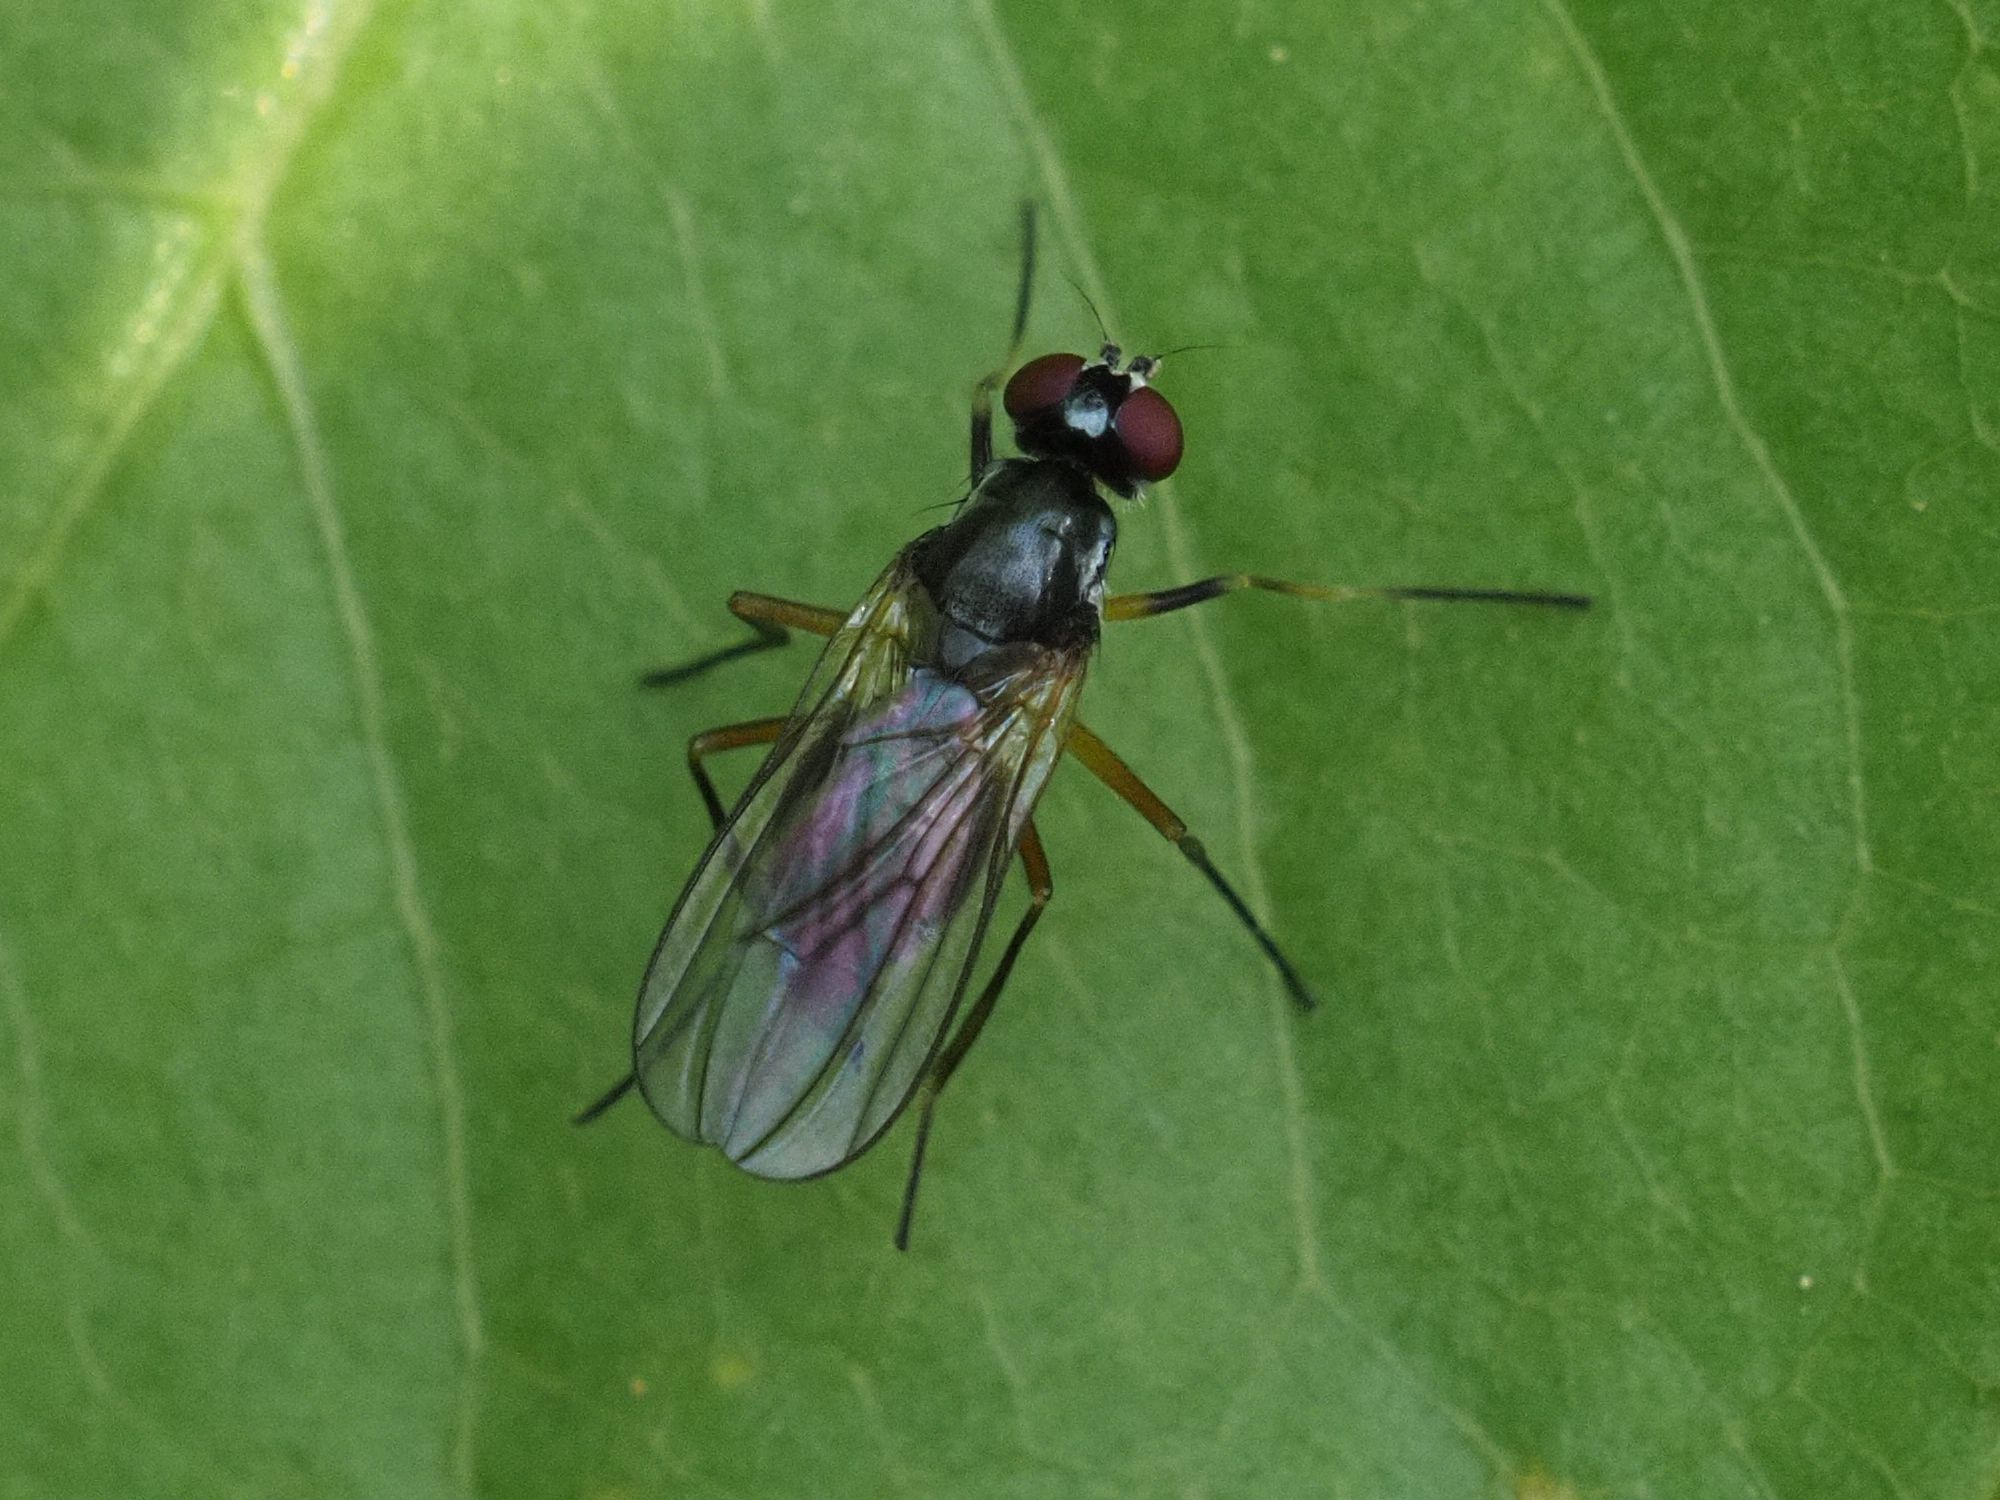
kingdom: Animalia
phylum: Arthropoda
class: Insecta
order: Diptera
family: Tanypezidae
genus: Tanypeza
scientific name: Tanypeza longimanus
